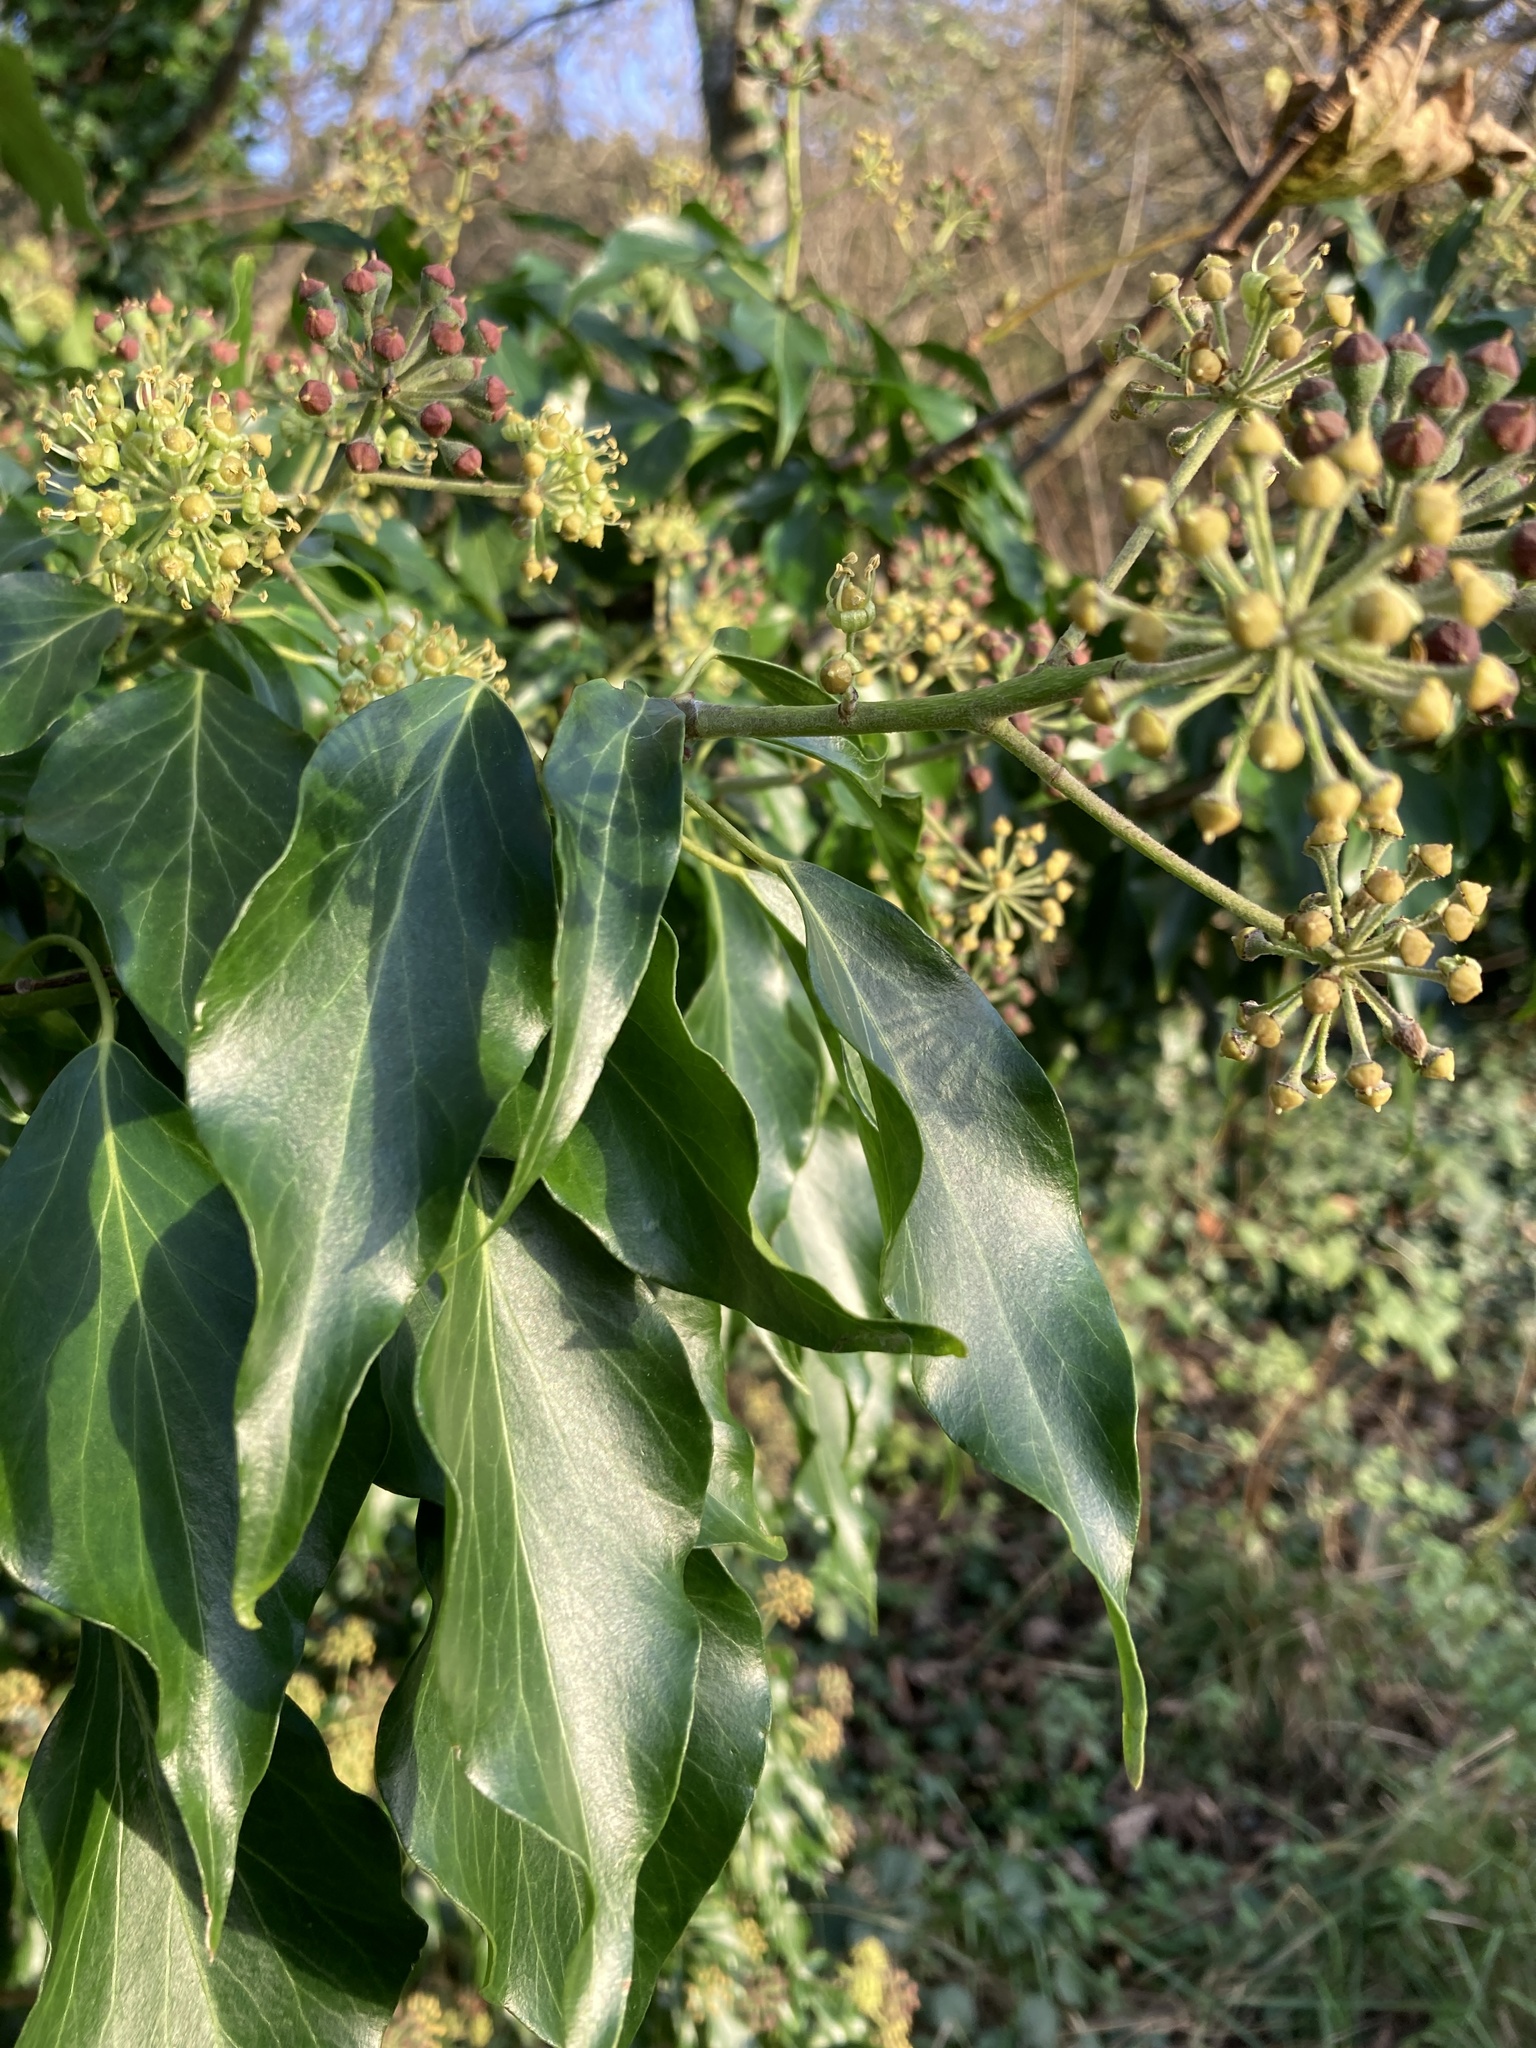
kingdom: Plantae
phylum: Tracheophyta
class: Magnoliopsida
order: Apiales
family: Araliaceae
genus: Hedera
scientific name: Hedera helix
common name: Ivy
